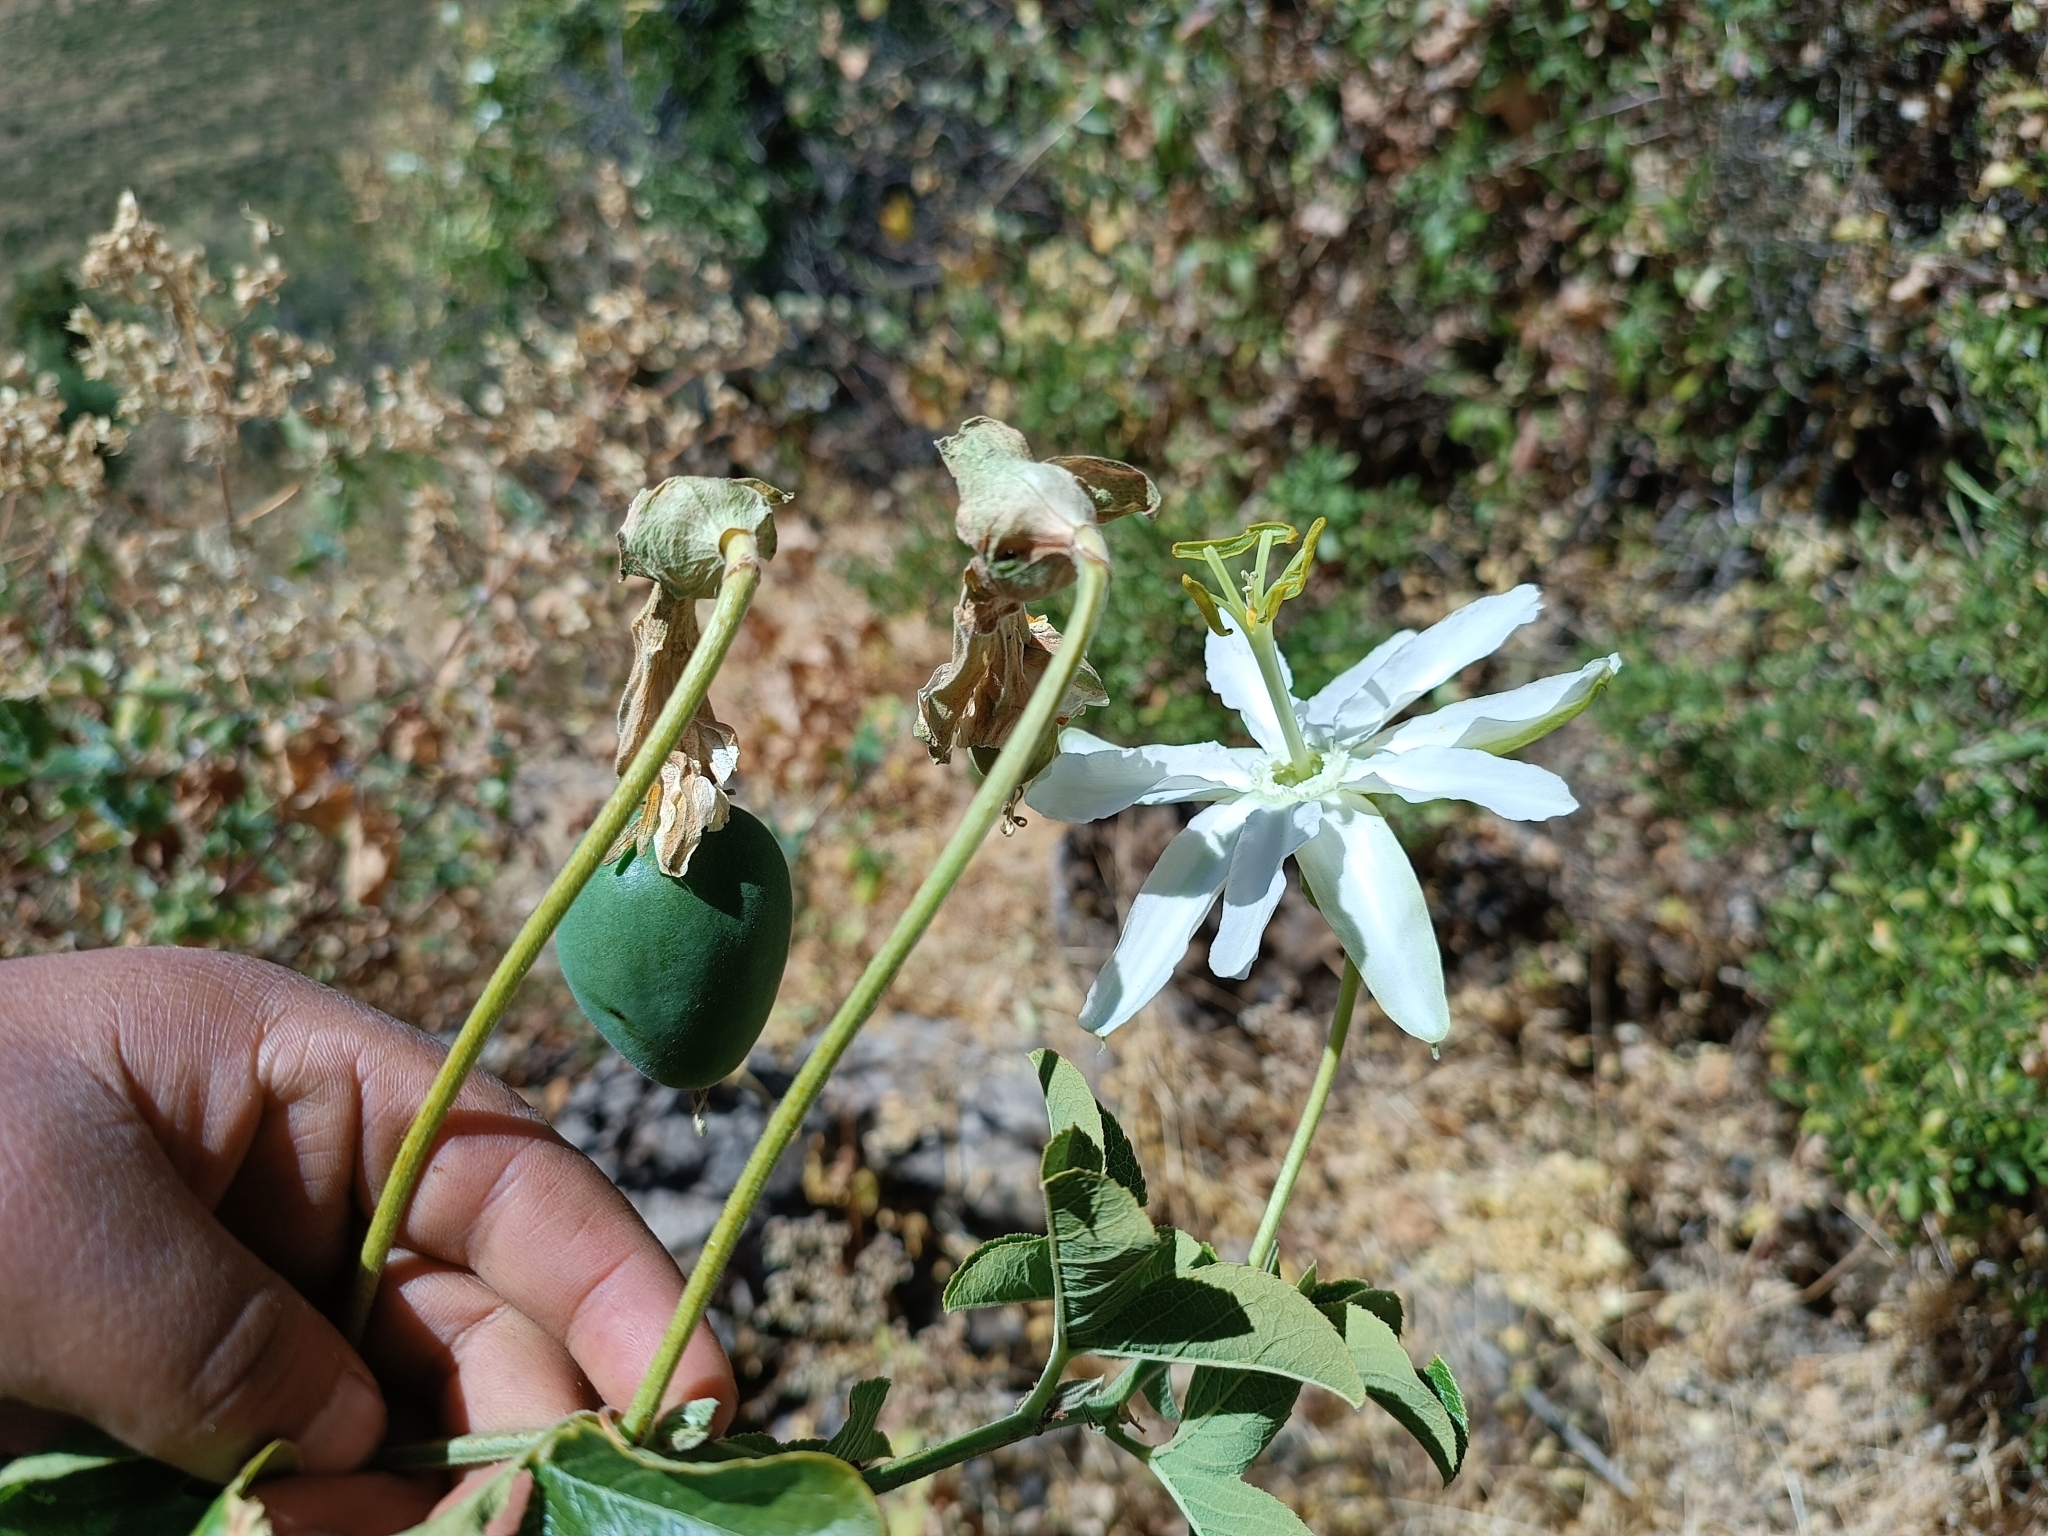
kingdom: Plantae
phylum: Tracheophyta
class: Magnoliopsida
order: Malpighiales
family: Passifloraceae
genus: Passiflora
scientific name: Passiflora peduncularis
